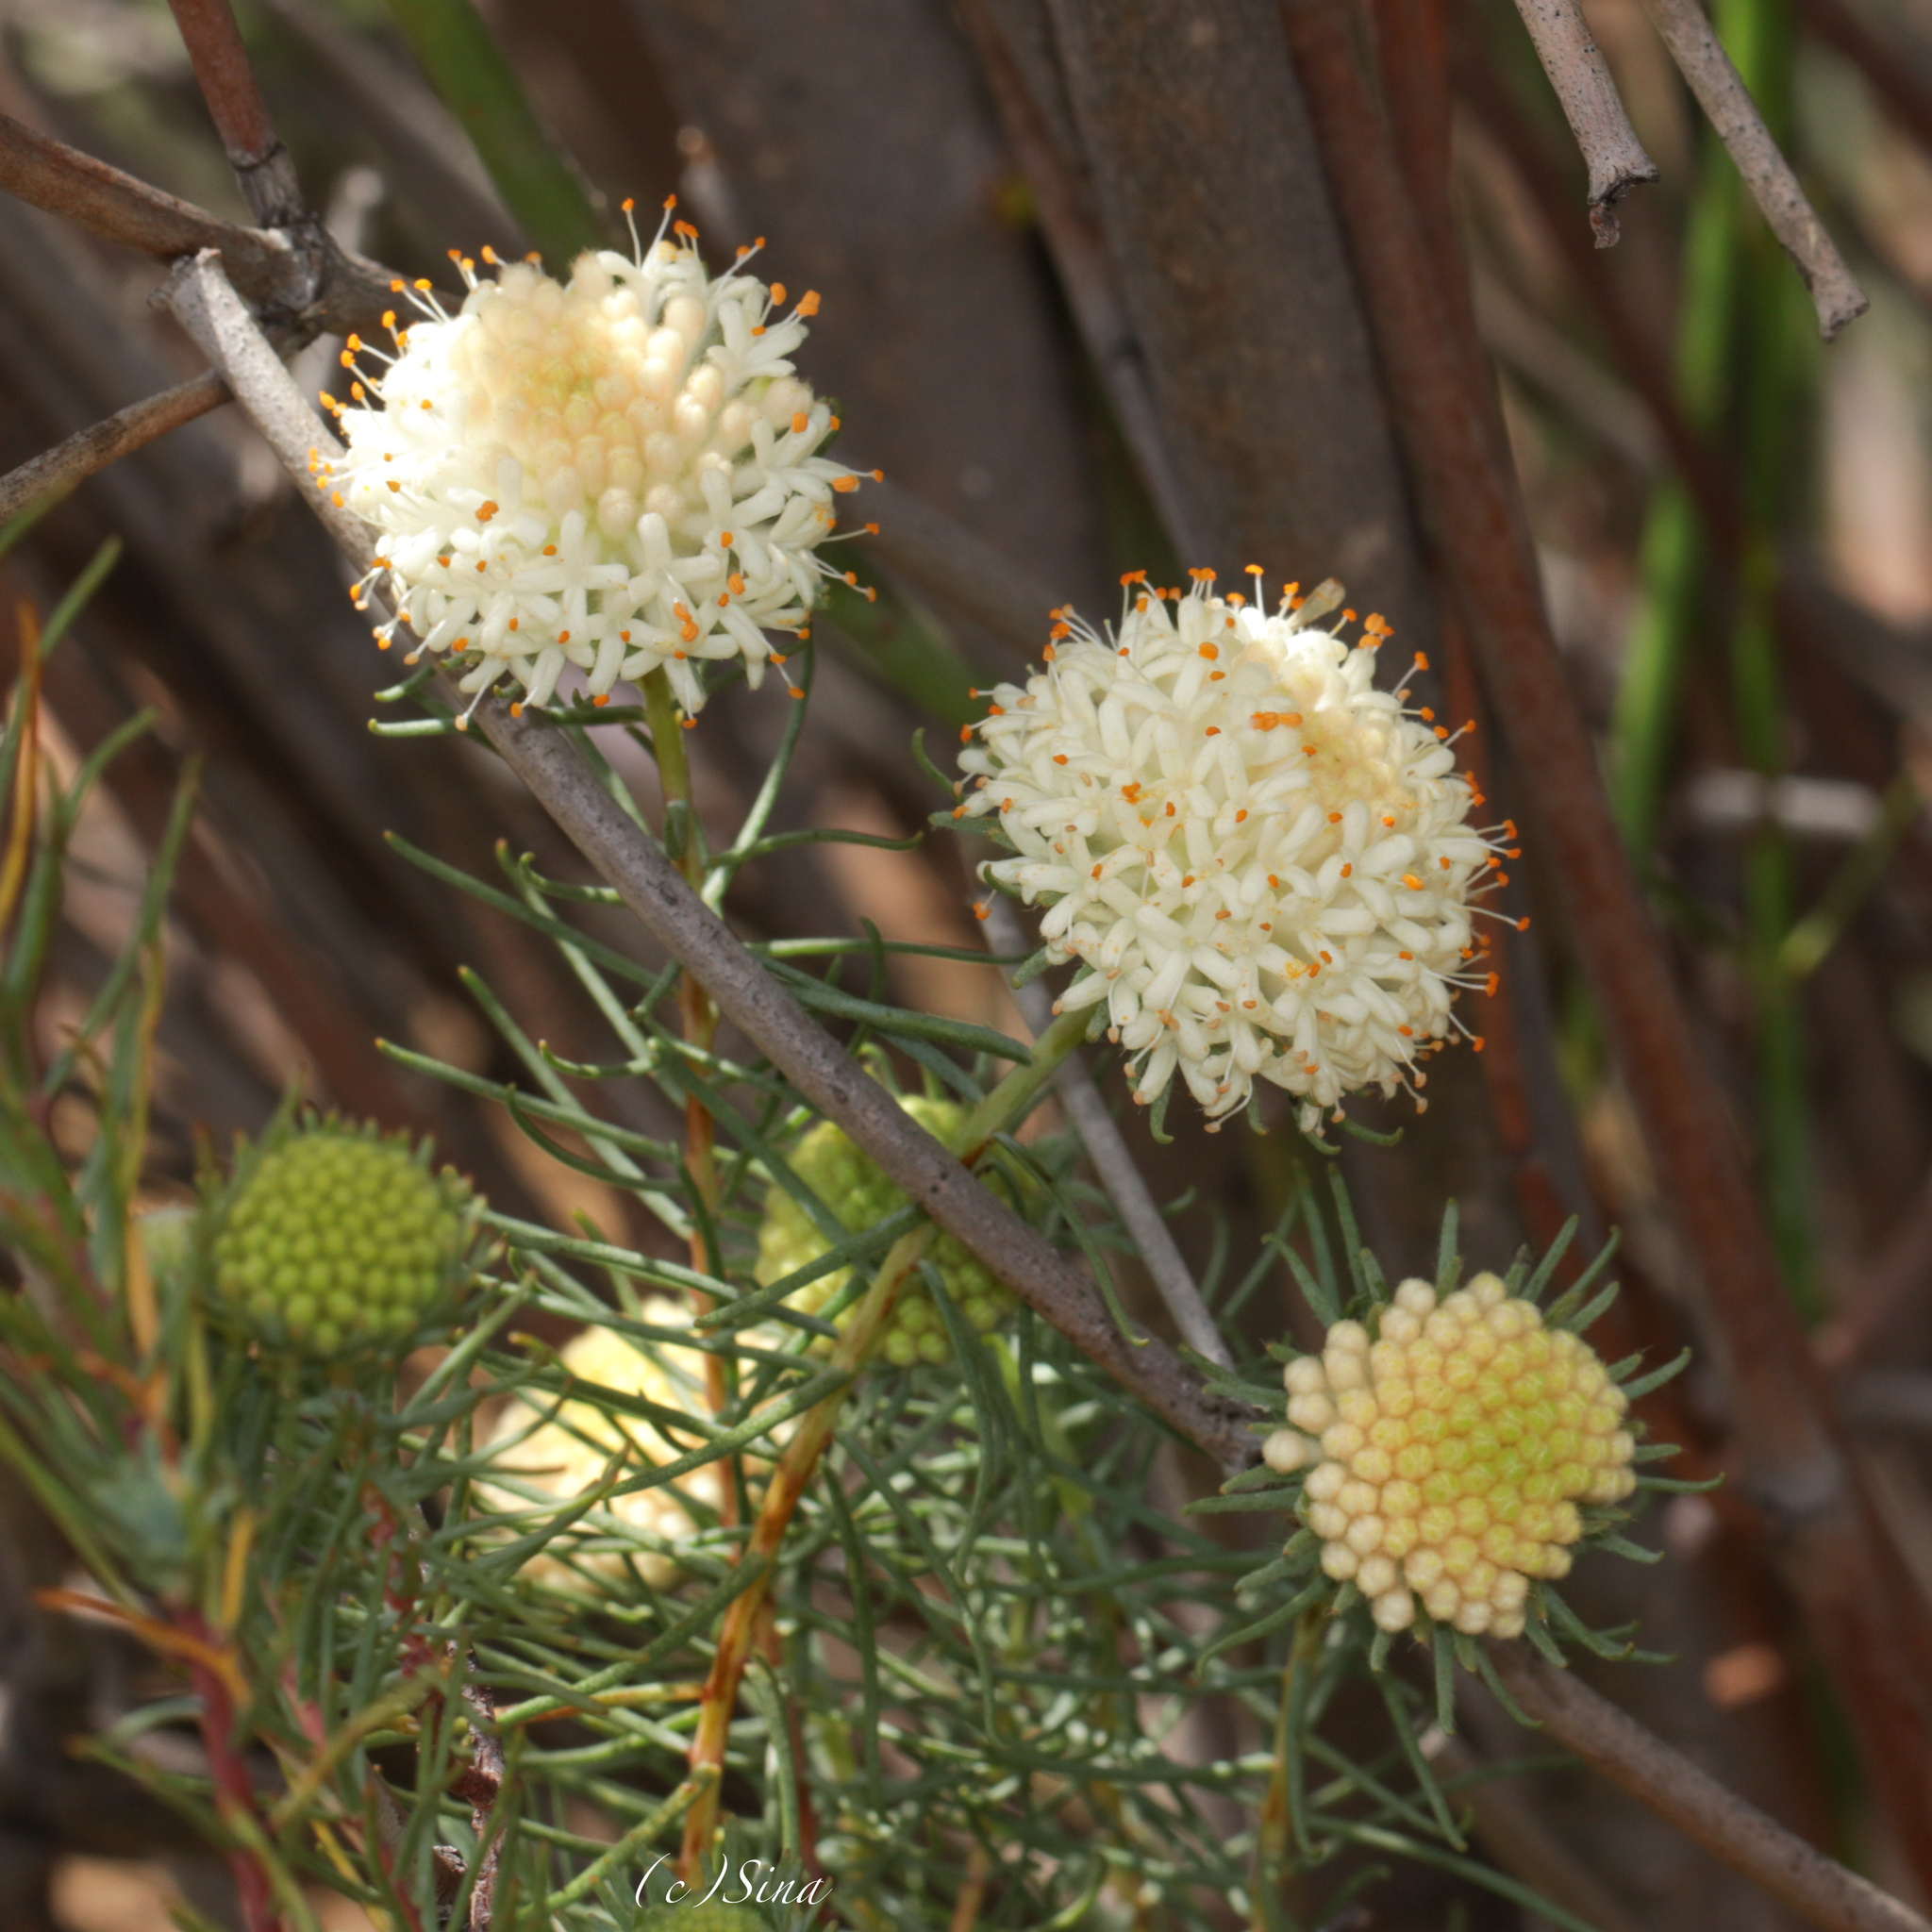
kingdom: Plantae
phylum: Tracheophyta
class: Magnoliopsida
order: Malvales
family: Thymelaeaceae
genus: Pimelea
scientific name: Pimelea graniticola
